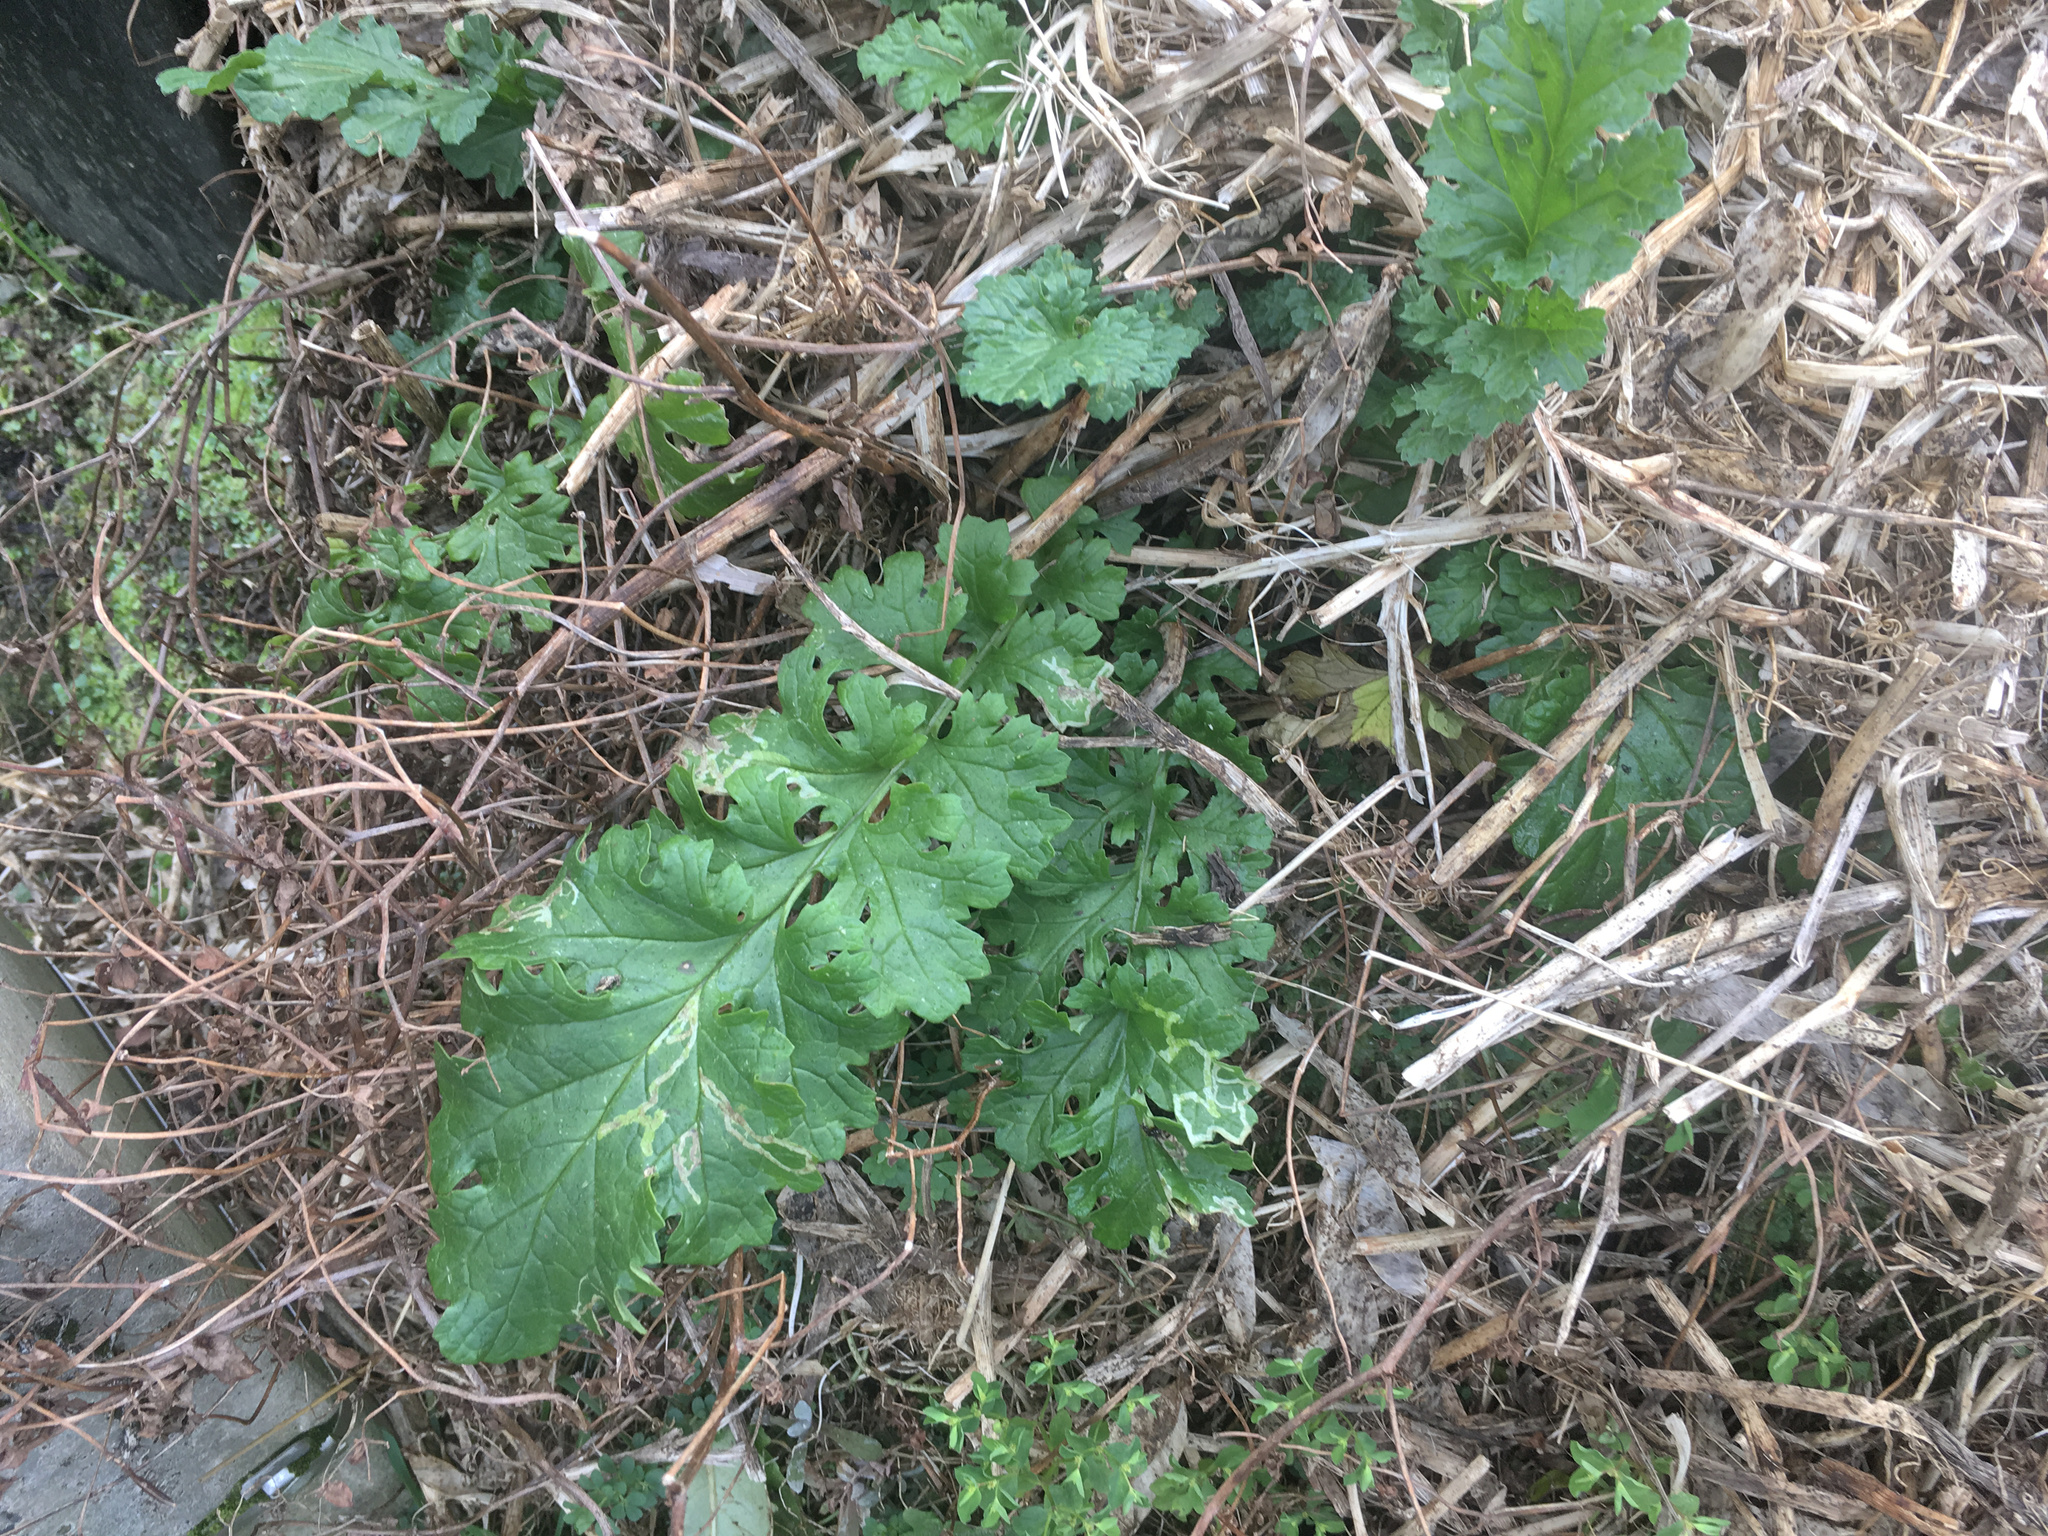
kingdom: Plantae
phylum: Tracheophyta
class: Magnoliopsida
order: Asterales
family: Asteraceae
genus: Jacobaea
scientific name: Jacobaea vulgaris
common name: Stinking willie
